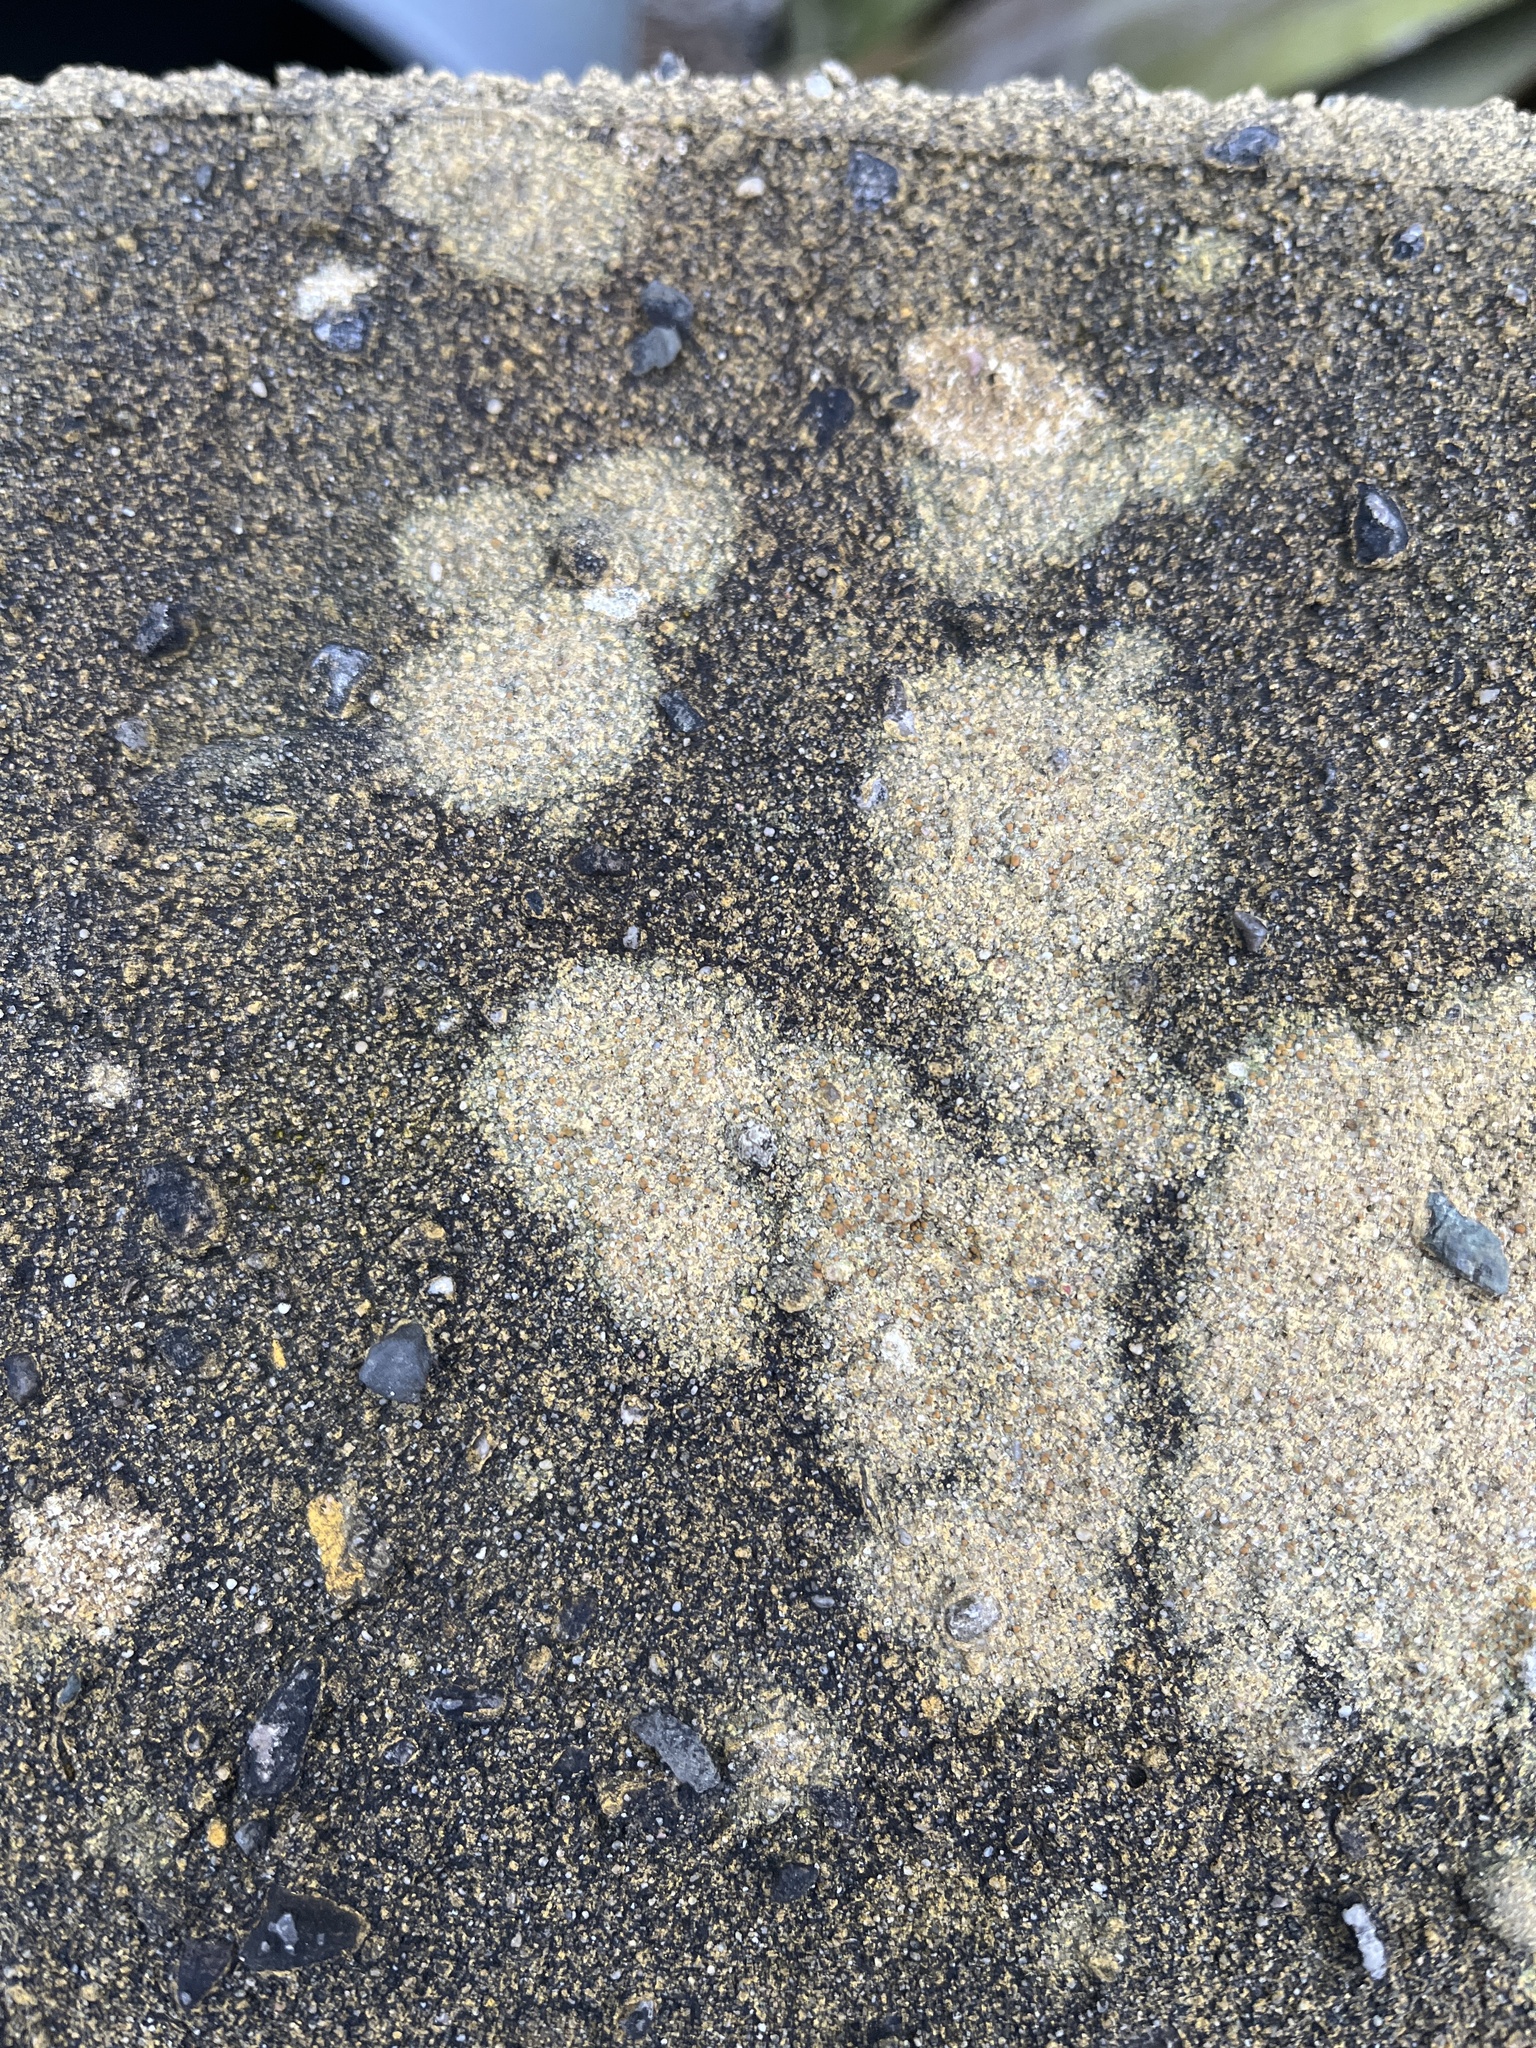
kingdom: Fungi
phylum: Ascomycota
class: Lecanoromycetes
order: Lecanorales
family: Psoraceae
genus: Protoblastenia
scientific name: Protoblastenia rupestris
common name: Chewing gum lichen
